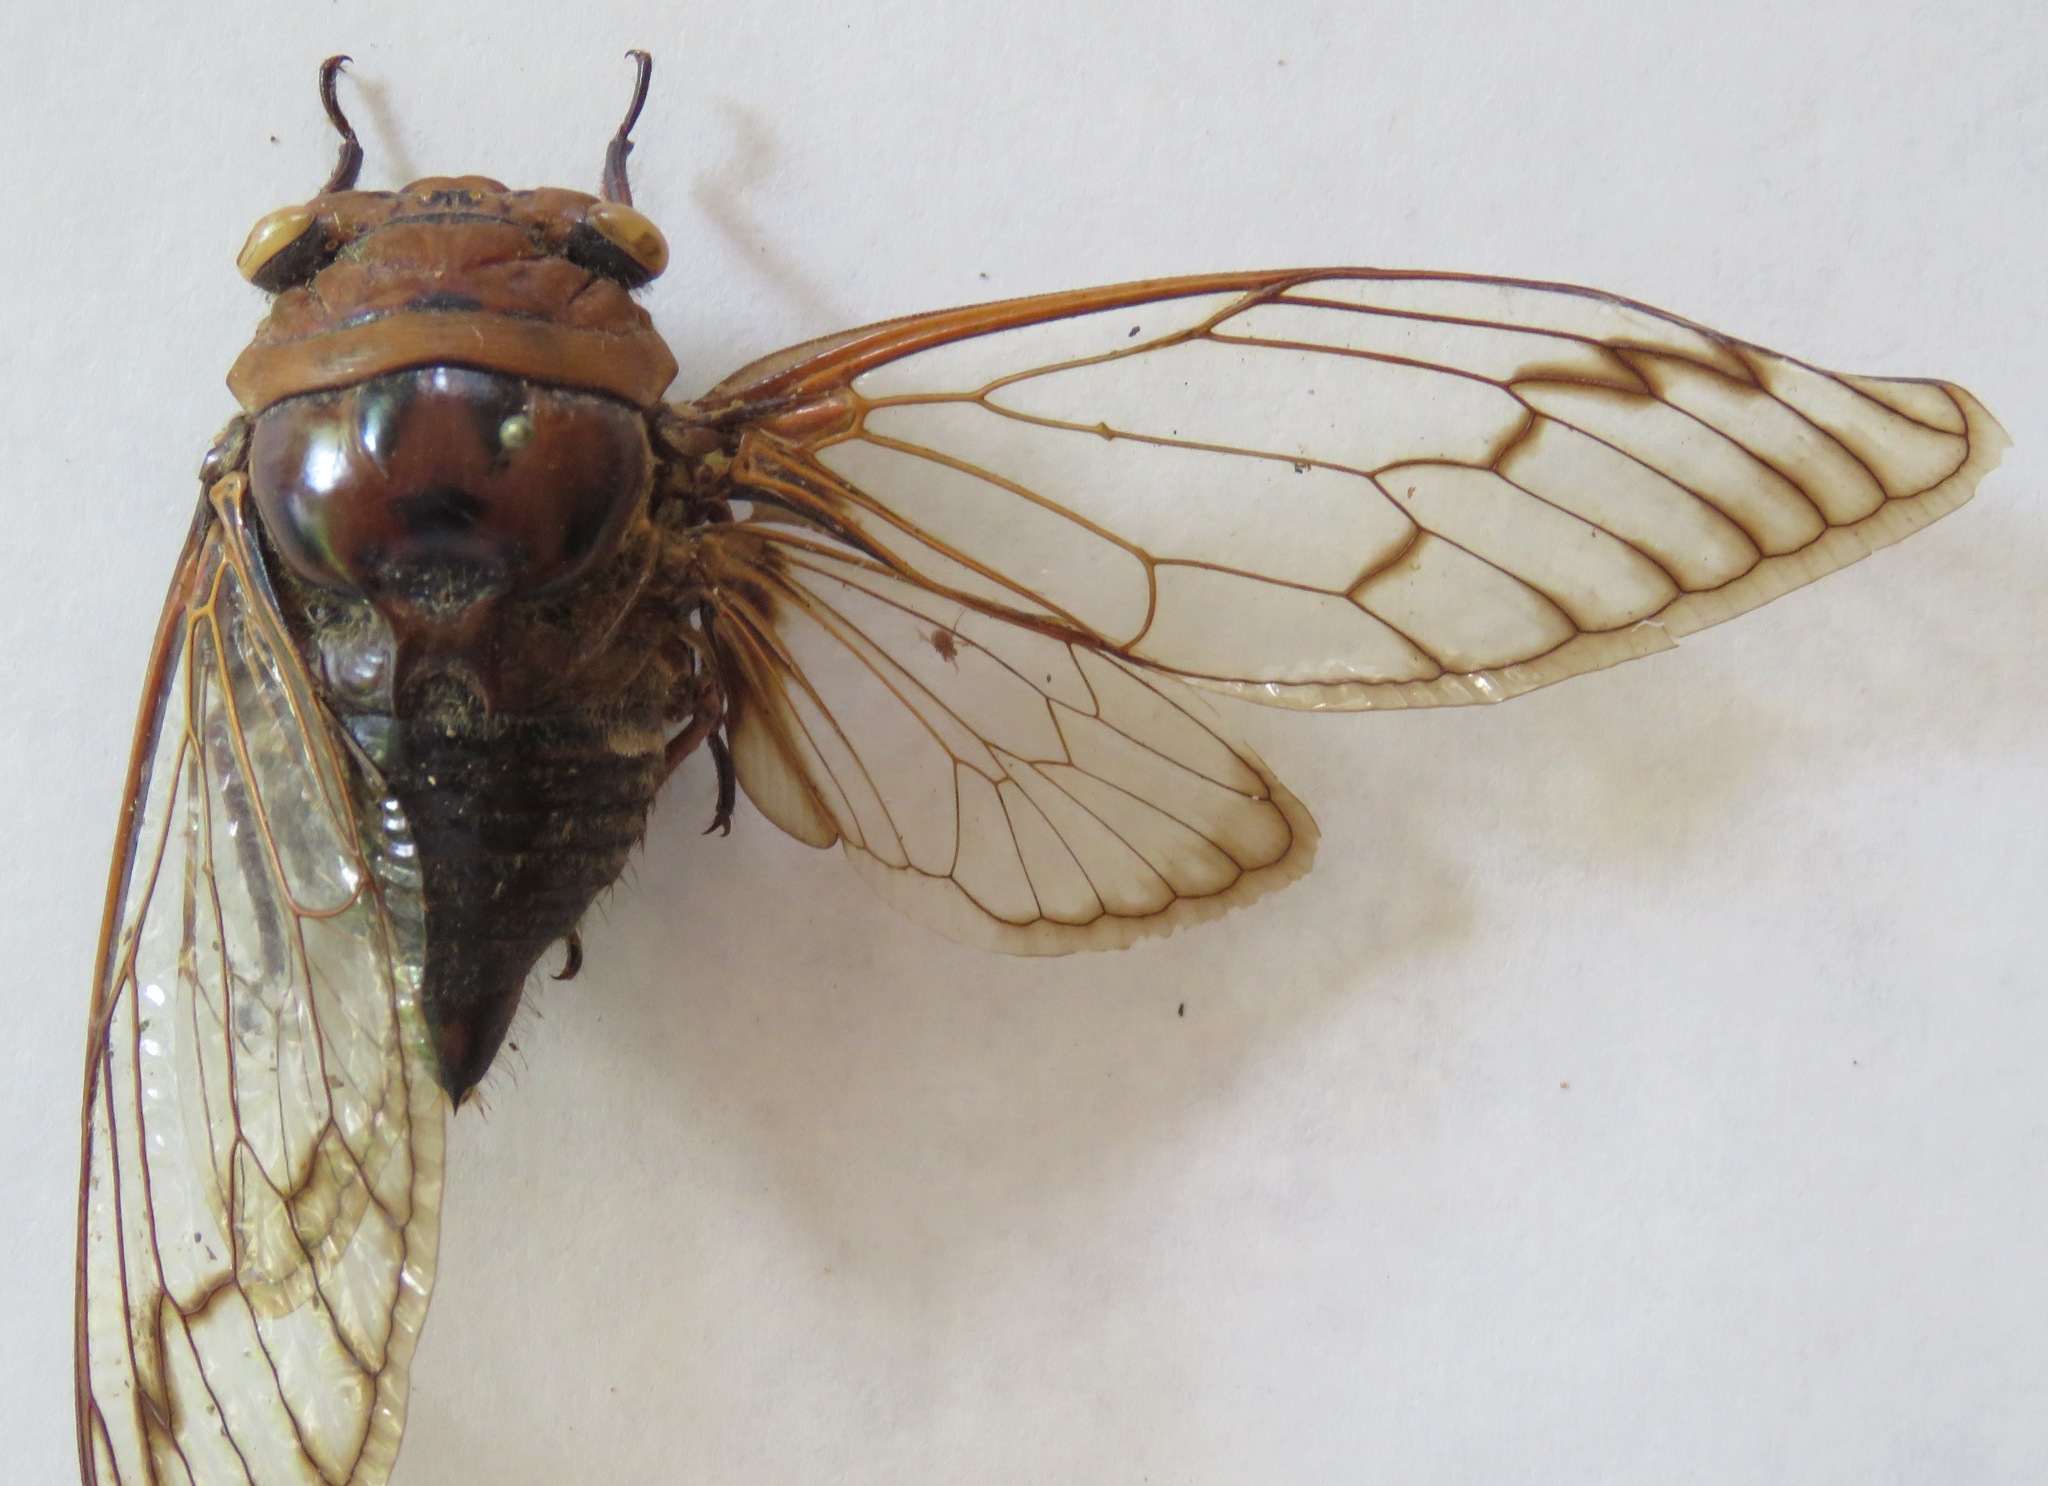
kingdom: Animalia
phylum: Arthropoda
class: Insecta
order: Hemiptera
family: Cicadidae
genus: Fidicina
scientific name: Fidicina mannifera
